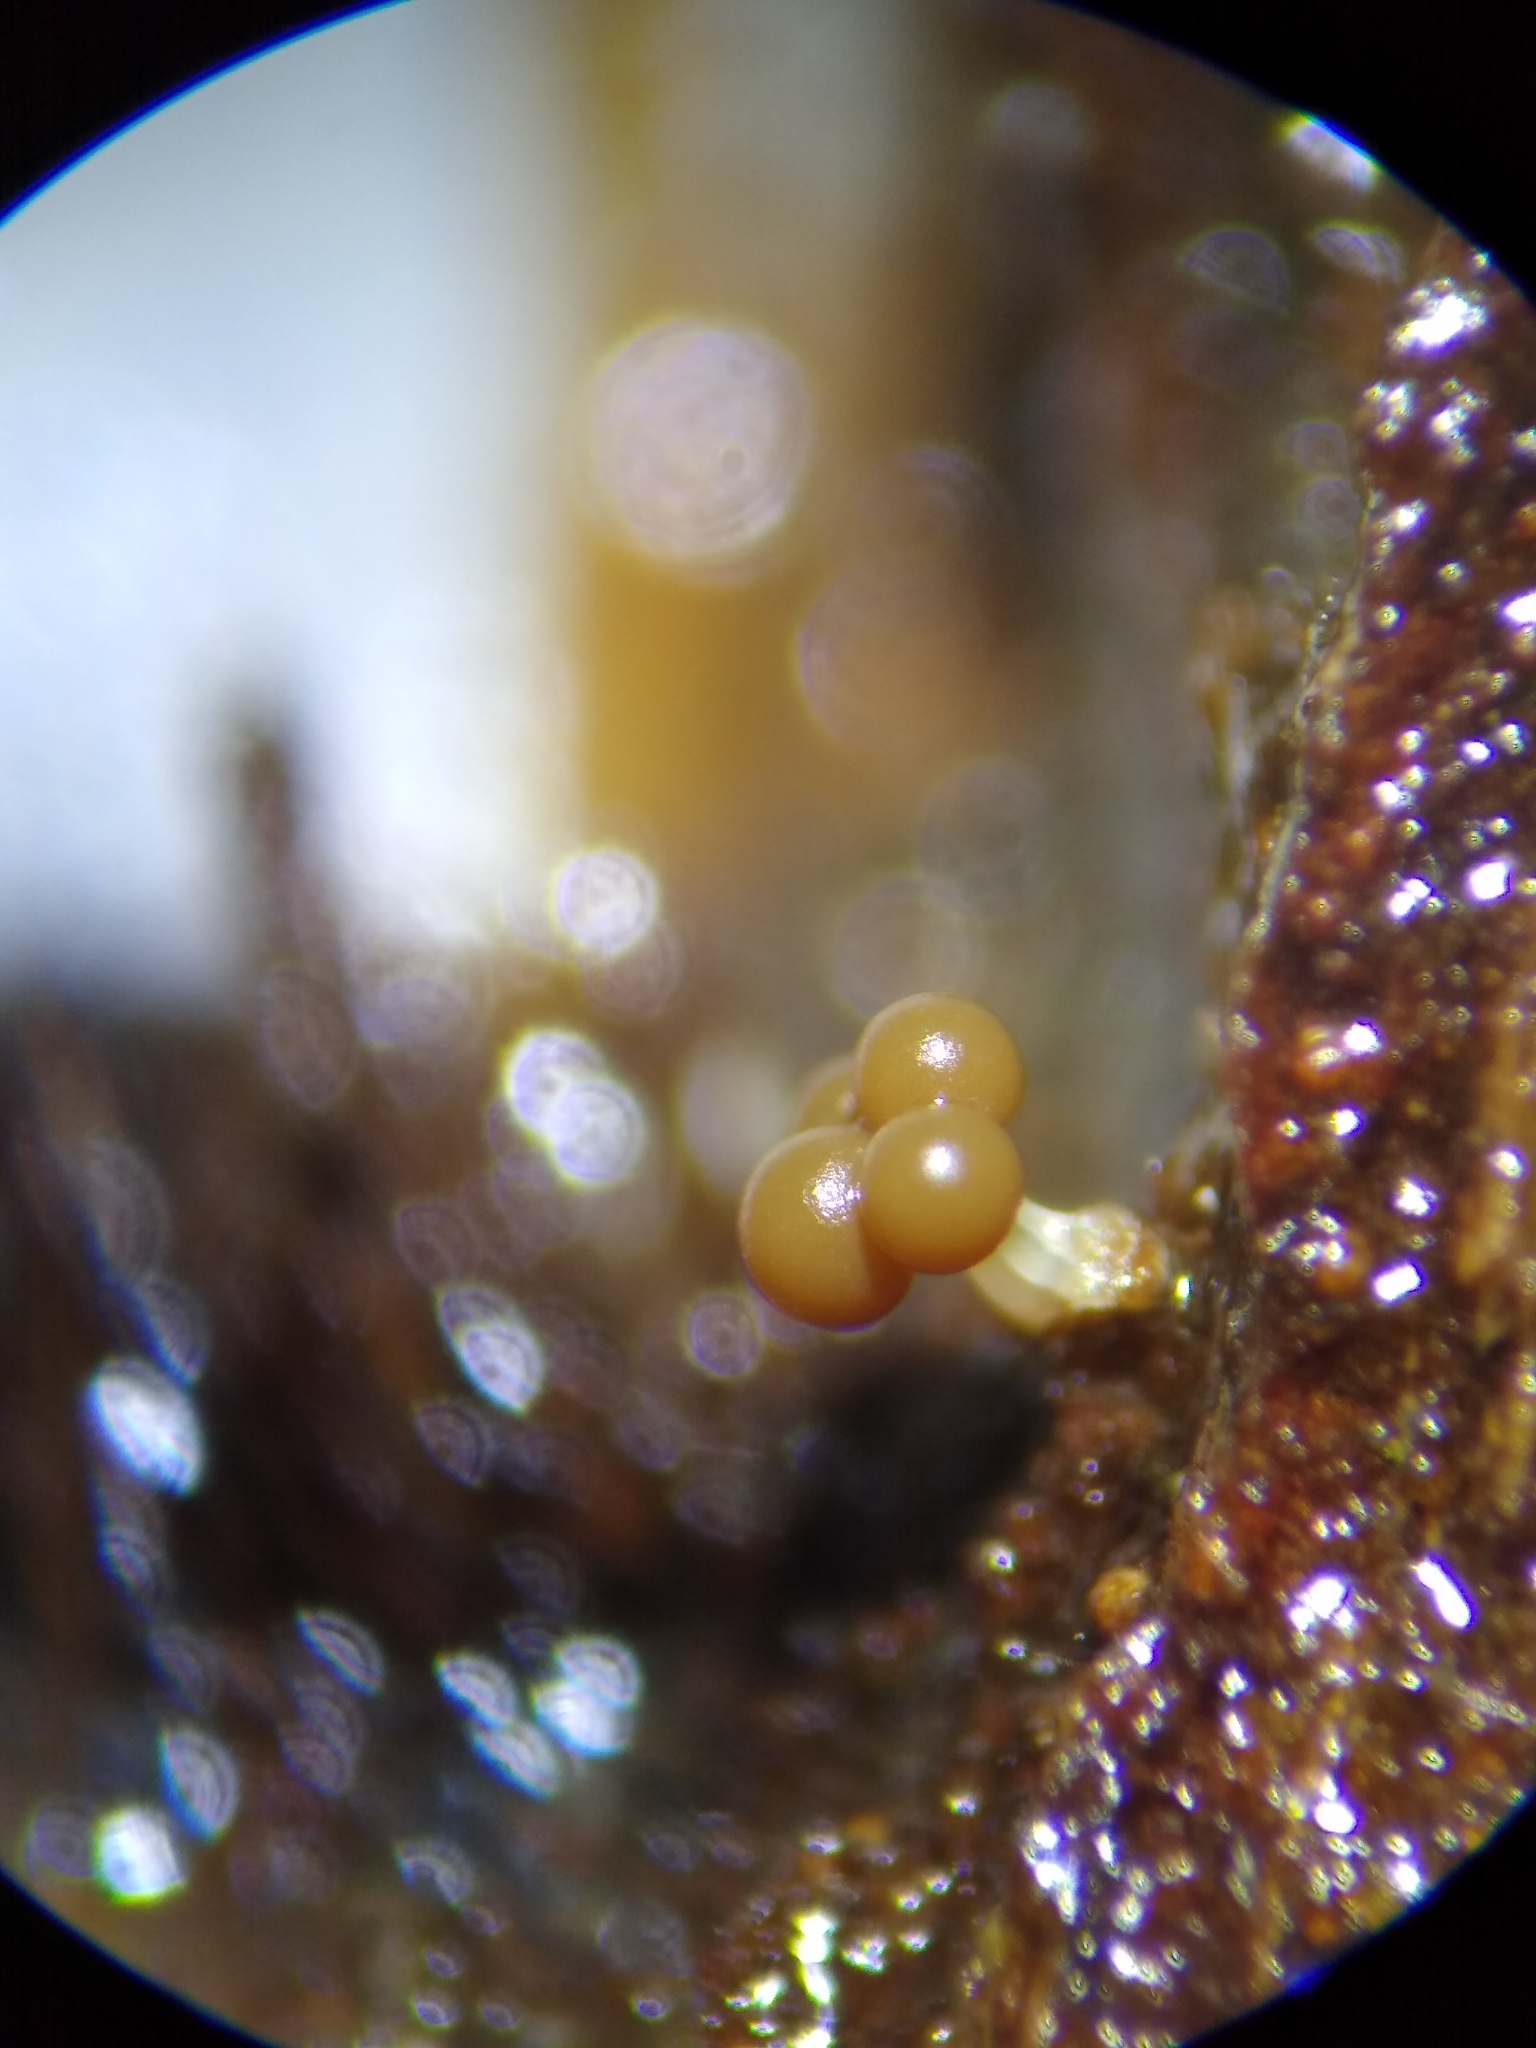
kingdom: Protozoa
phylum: Mycetozoa
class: Myxomycetes
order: Trichiales
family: Trichiaceae
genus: Oligonema
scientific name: Oligonema verrucosum
